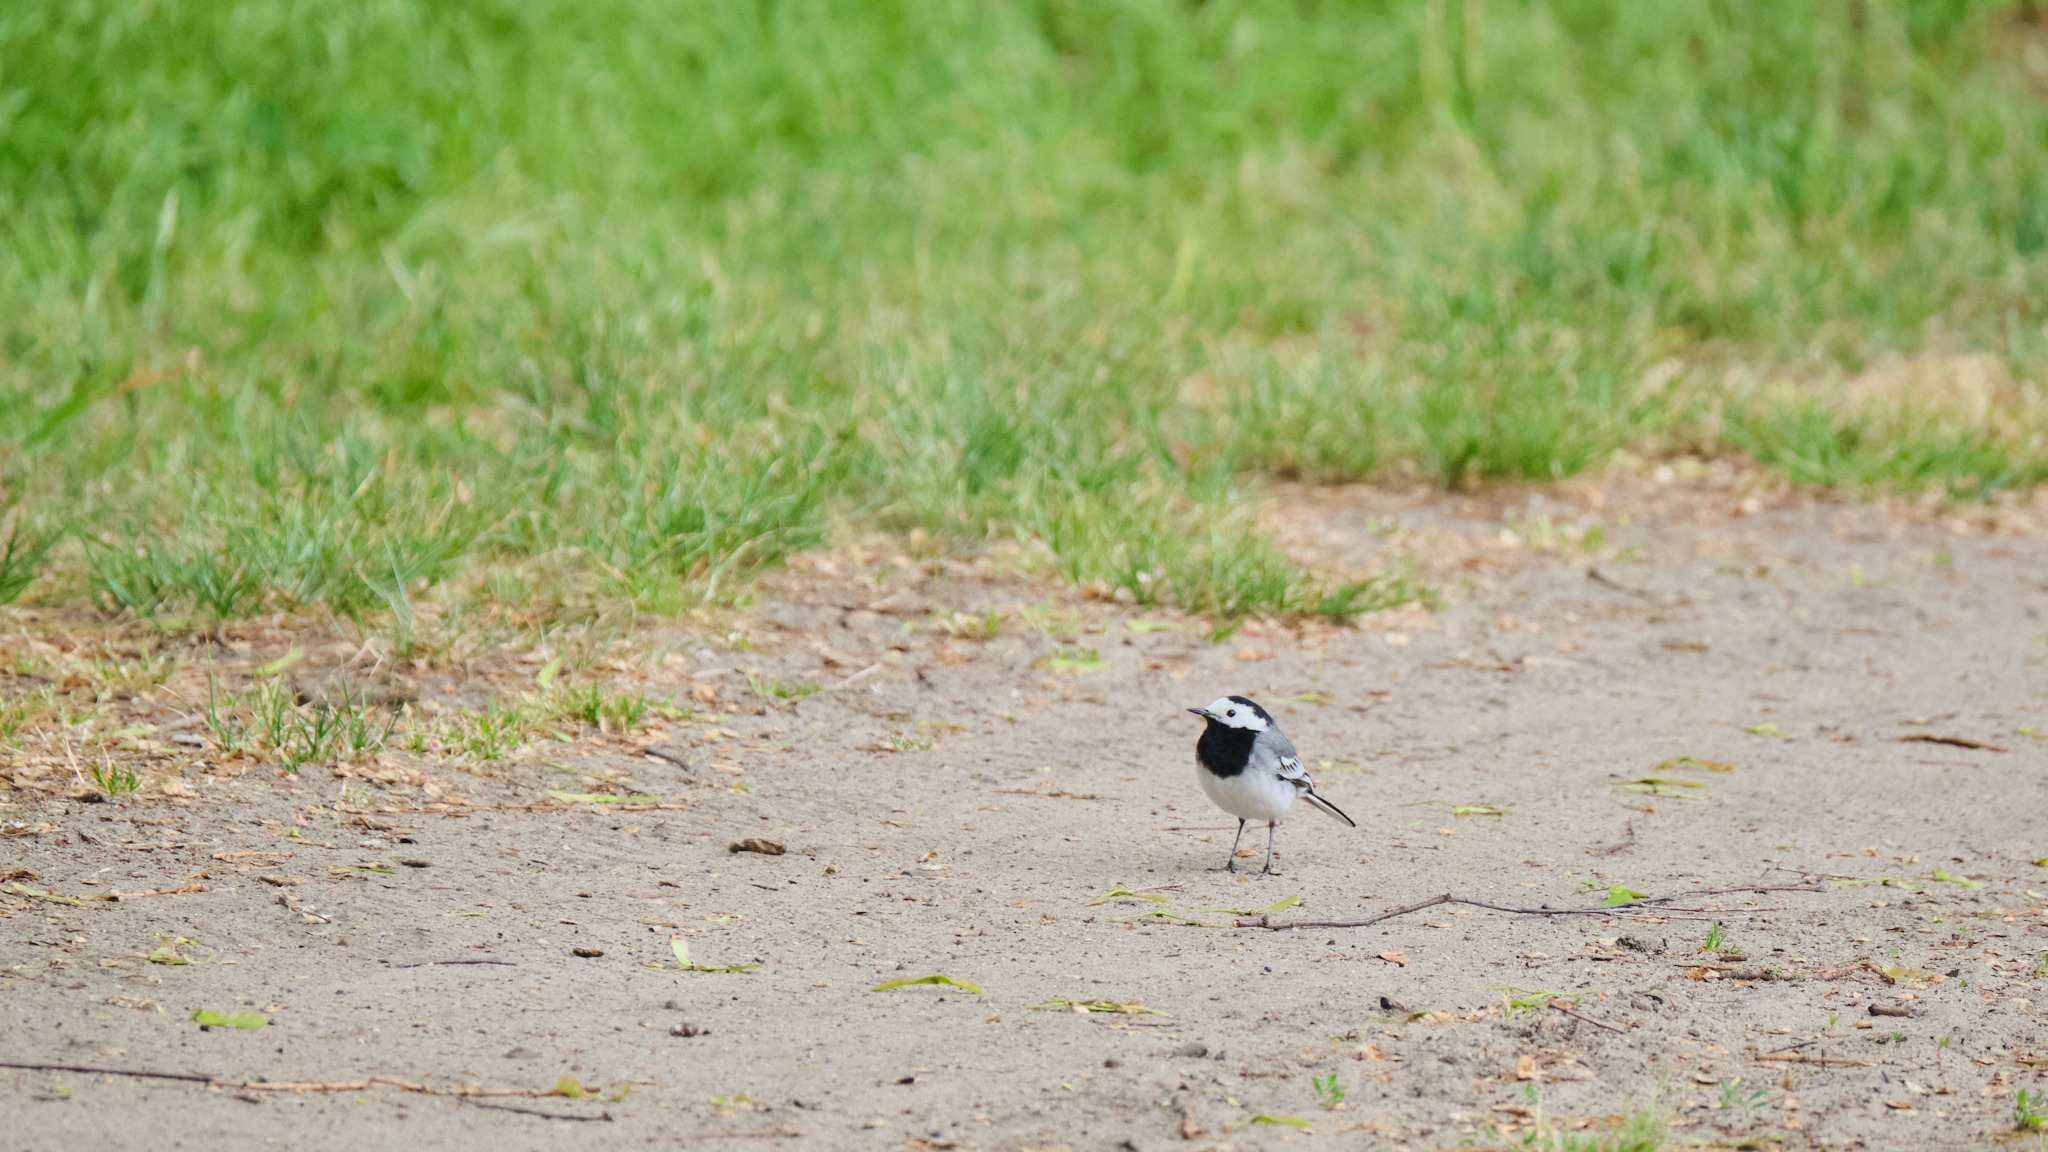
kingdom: Animalia
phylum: Chordata
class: Aves
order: Passeriformes
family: Motacillidae
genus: Motacilla
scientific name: Motacilla alba
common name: White wagtail
